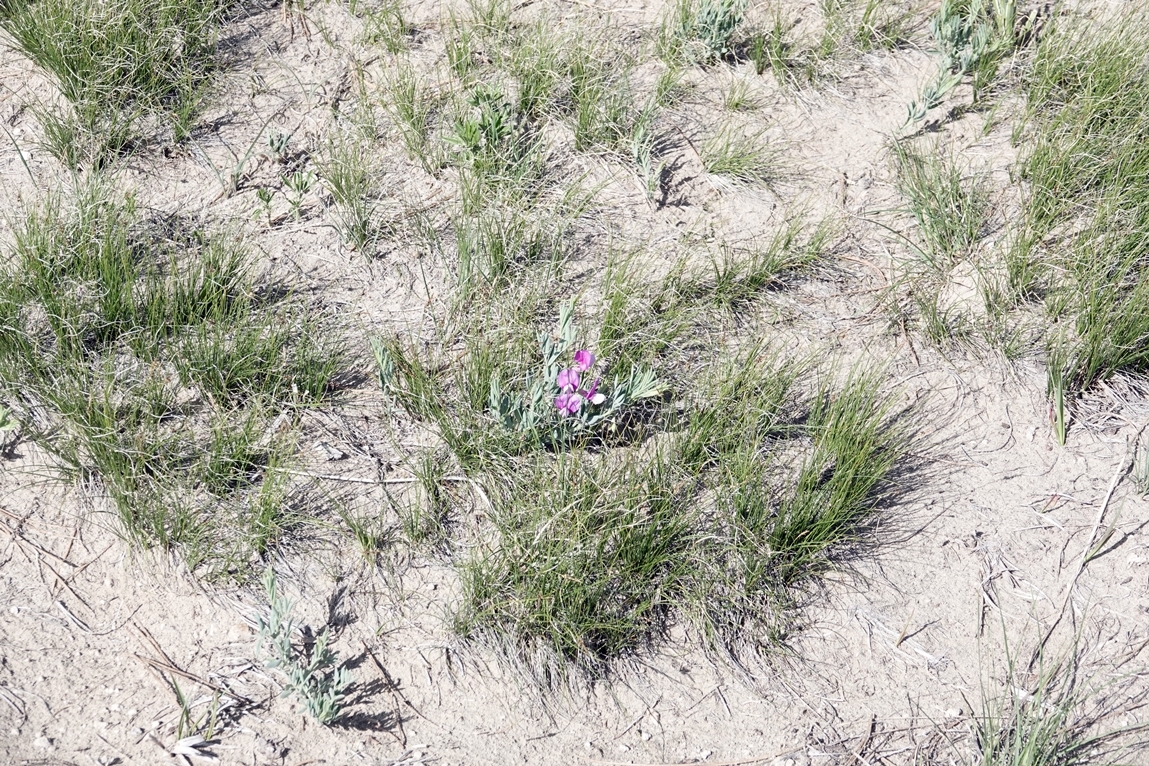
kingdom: Plantae
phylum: Tracheophyta
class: Magnoliopsida
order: Fabales
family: Fabaceae
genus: Lathyrus
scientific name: Lathyrus
